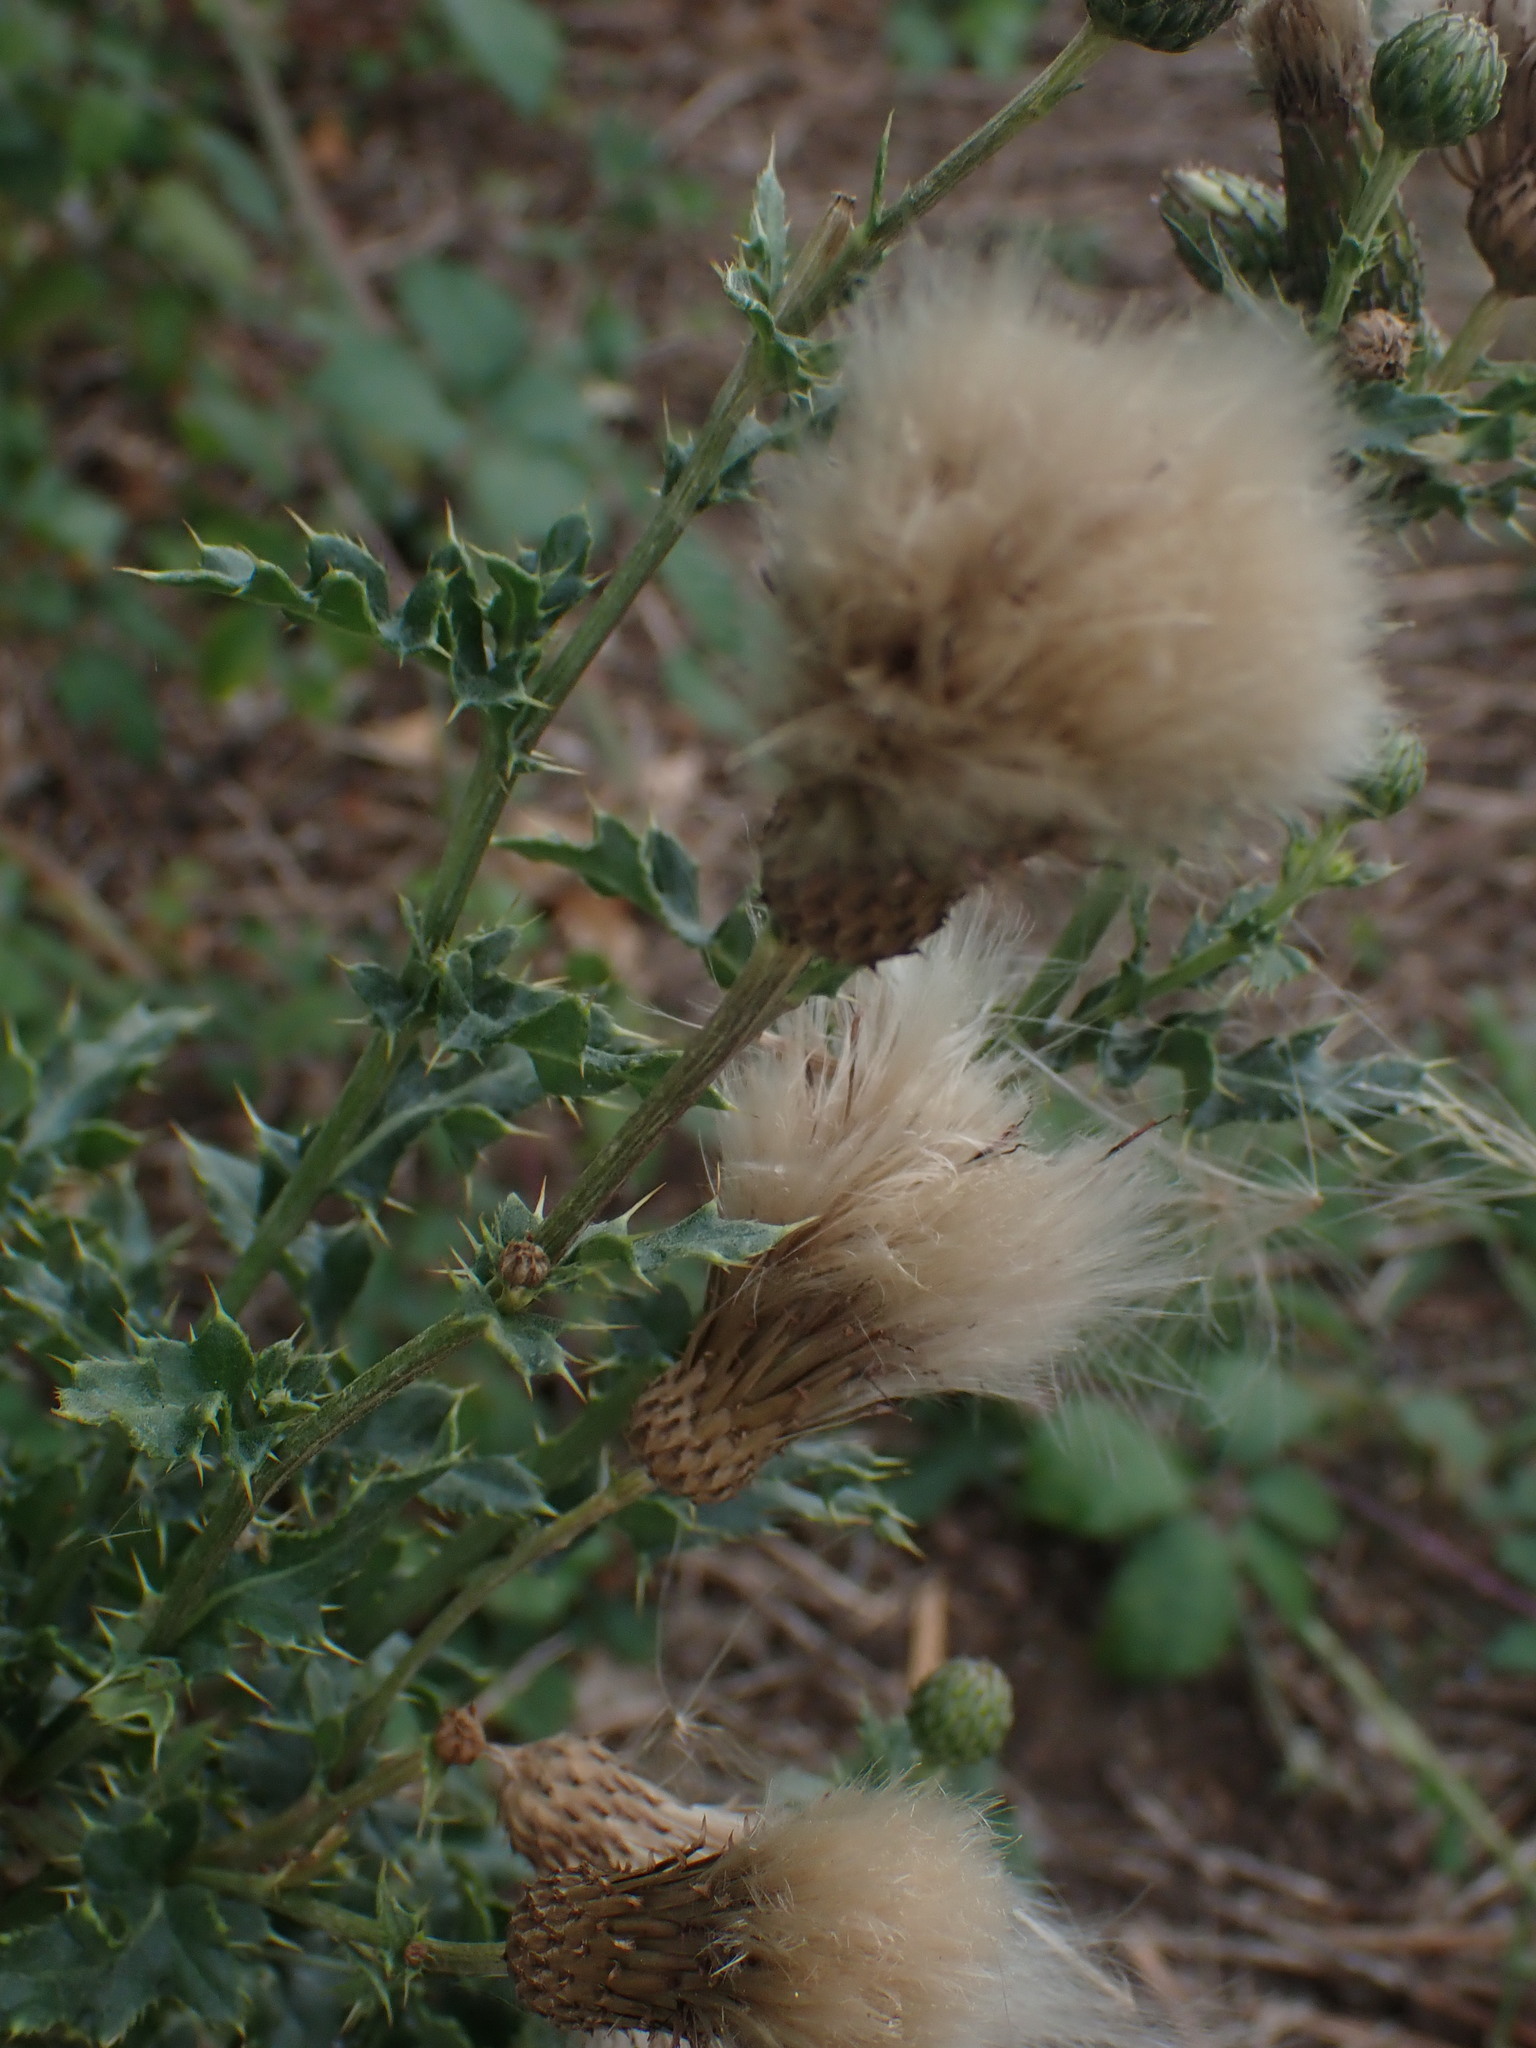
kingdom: Plantae
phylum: Tracheophyta
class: Magnoliopsida
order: Asterales
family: Asteraceae
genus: Cirsium
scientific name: Cirsium arvense
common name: Creeping thistle
